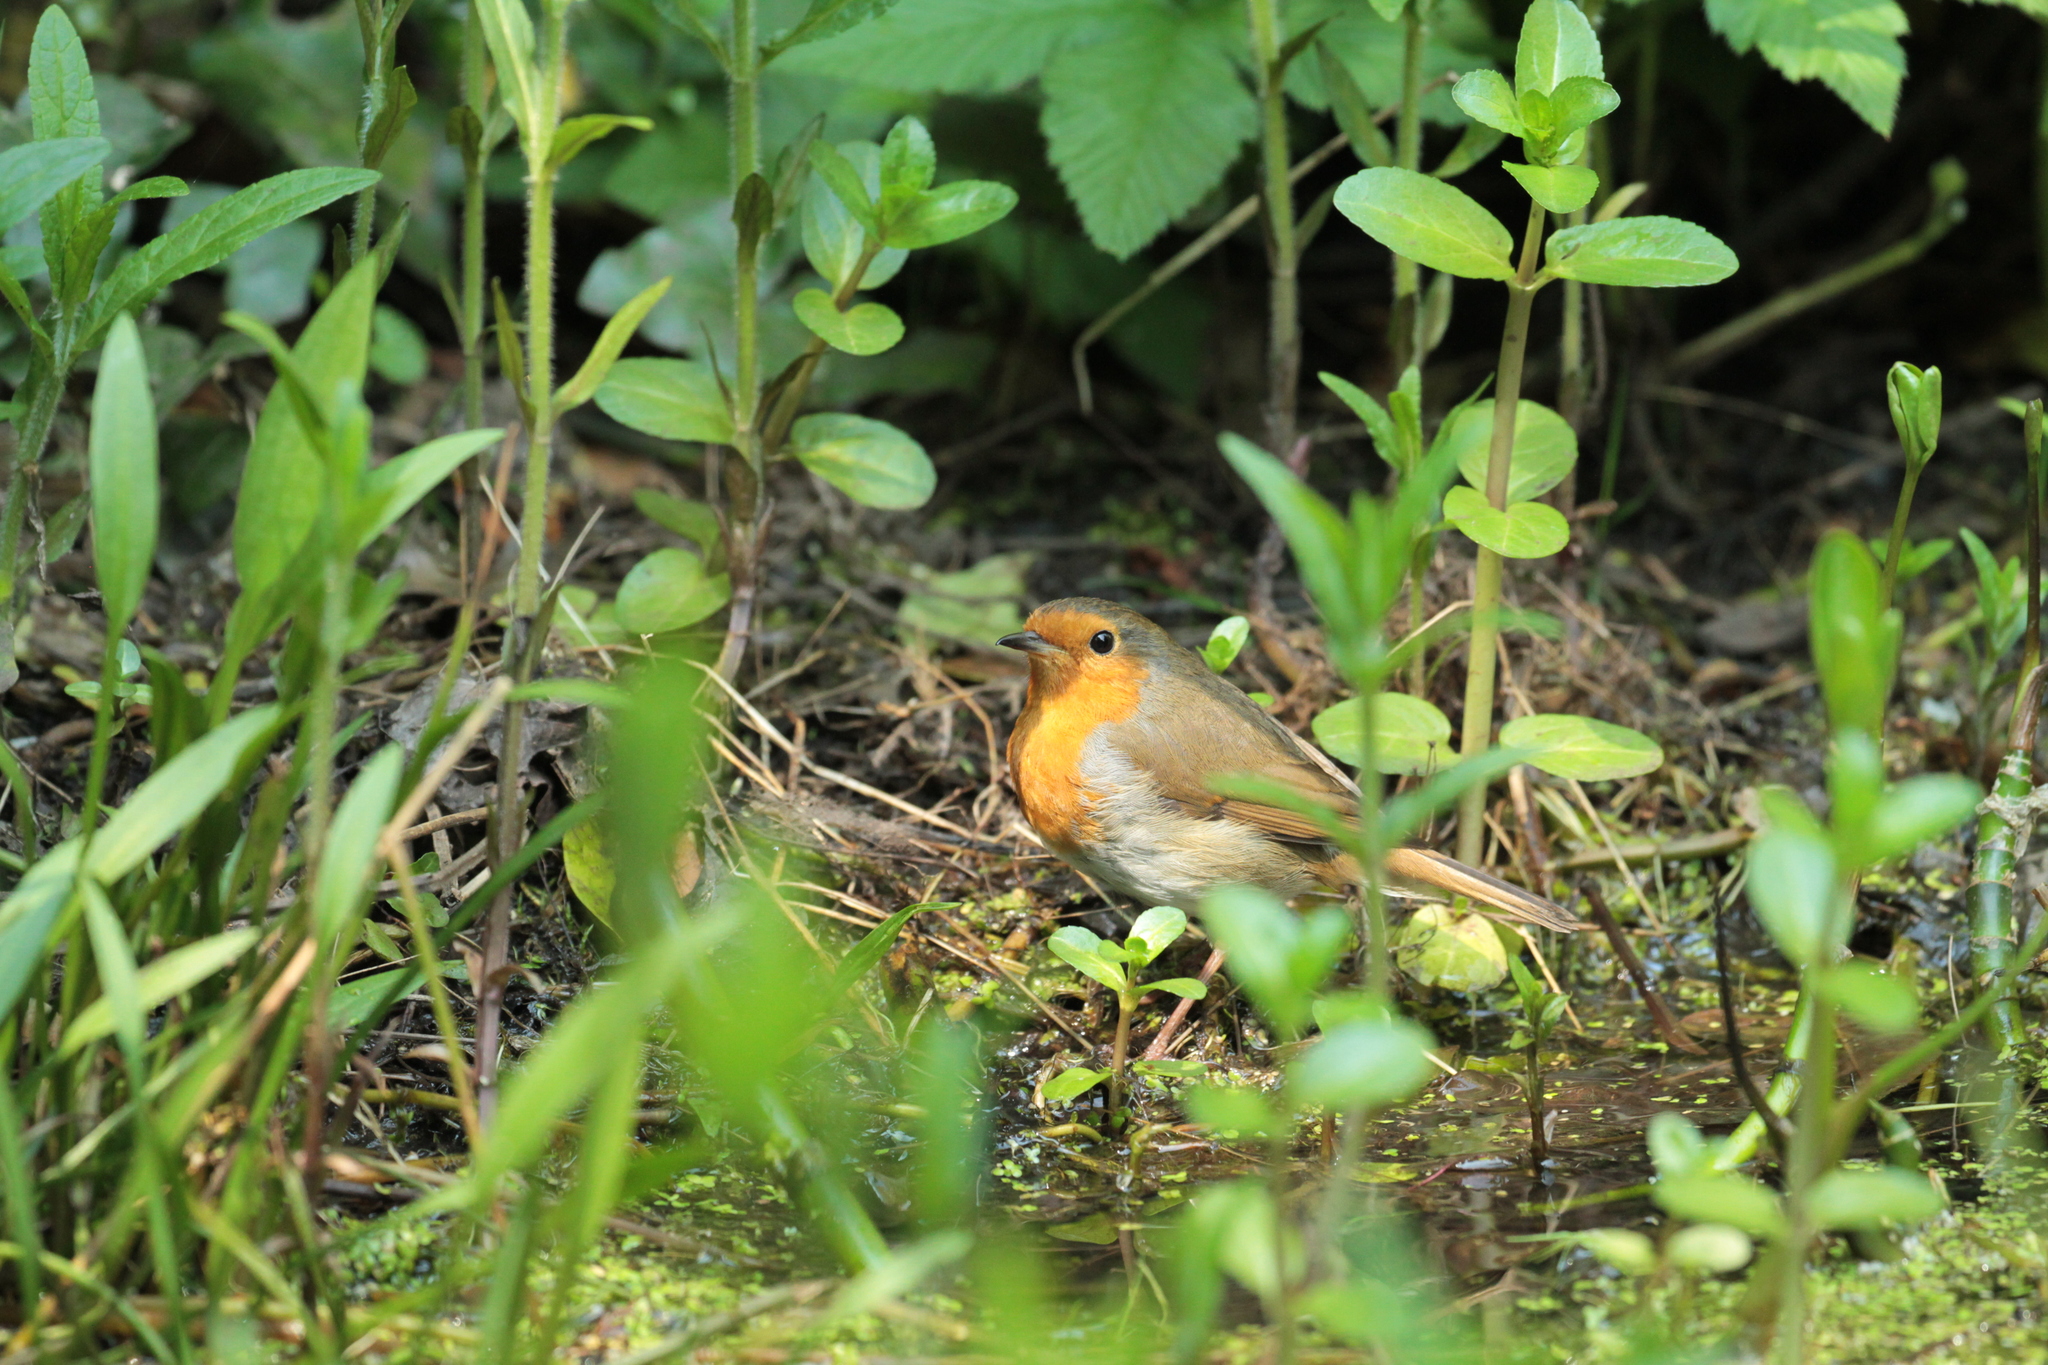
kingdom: Animalia
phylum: Chordata
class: Aves
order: Passeriformes
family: Muscicapidae
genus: Erithacus
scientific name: Erithacus rubecula
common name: European robin
